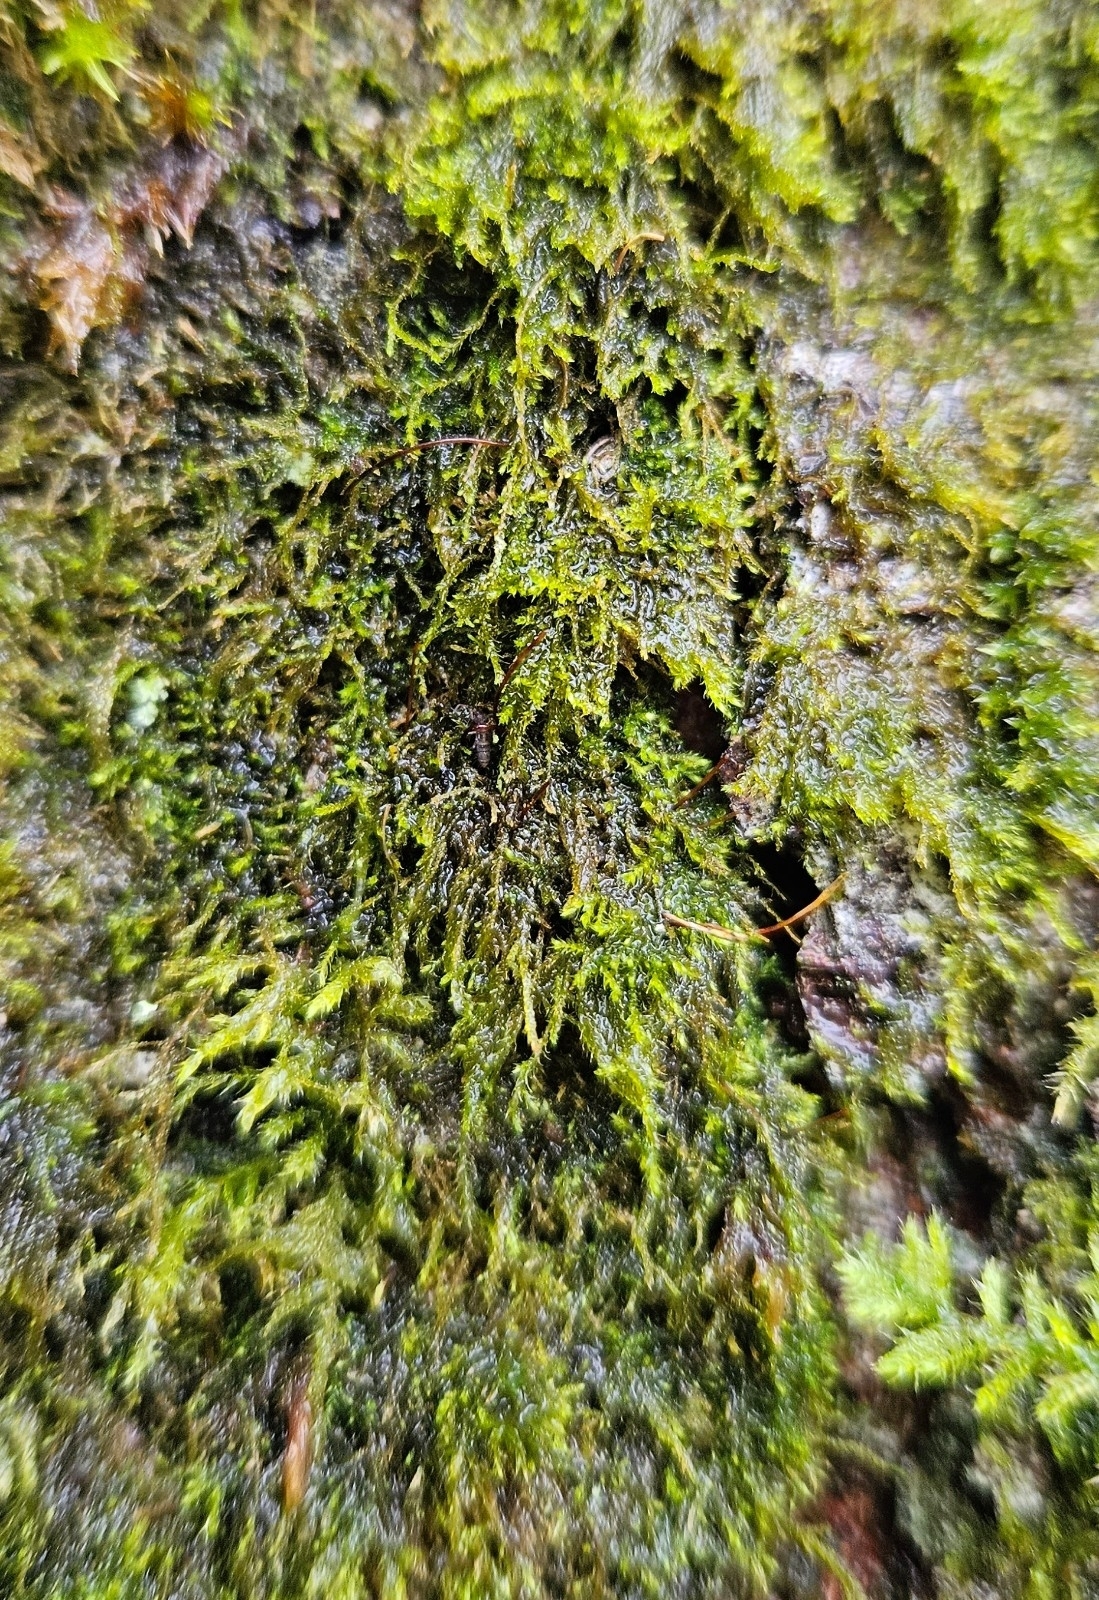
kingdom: Plantae
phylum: Bryophyta
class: Bryopsida
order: Hypnales
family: Amblystegiaceae
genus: Amblystegium
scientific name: Amblystegium serpens
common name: Jurkatzka's feather moss
